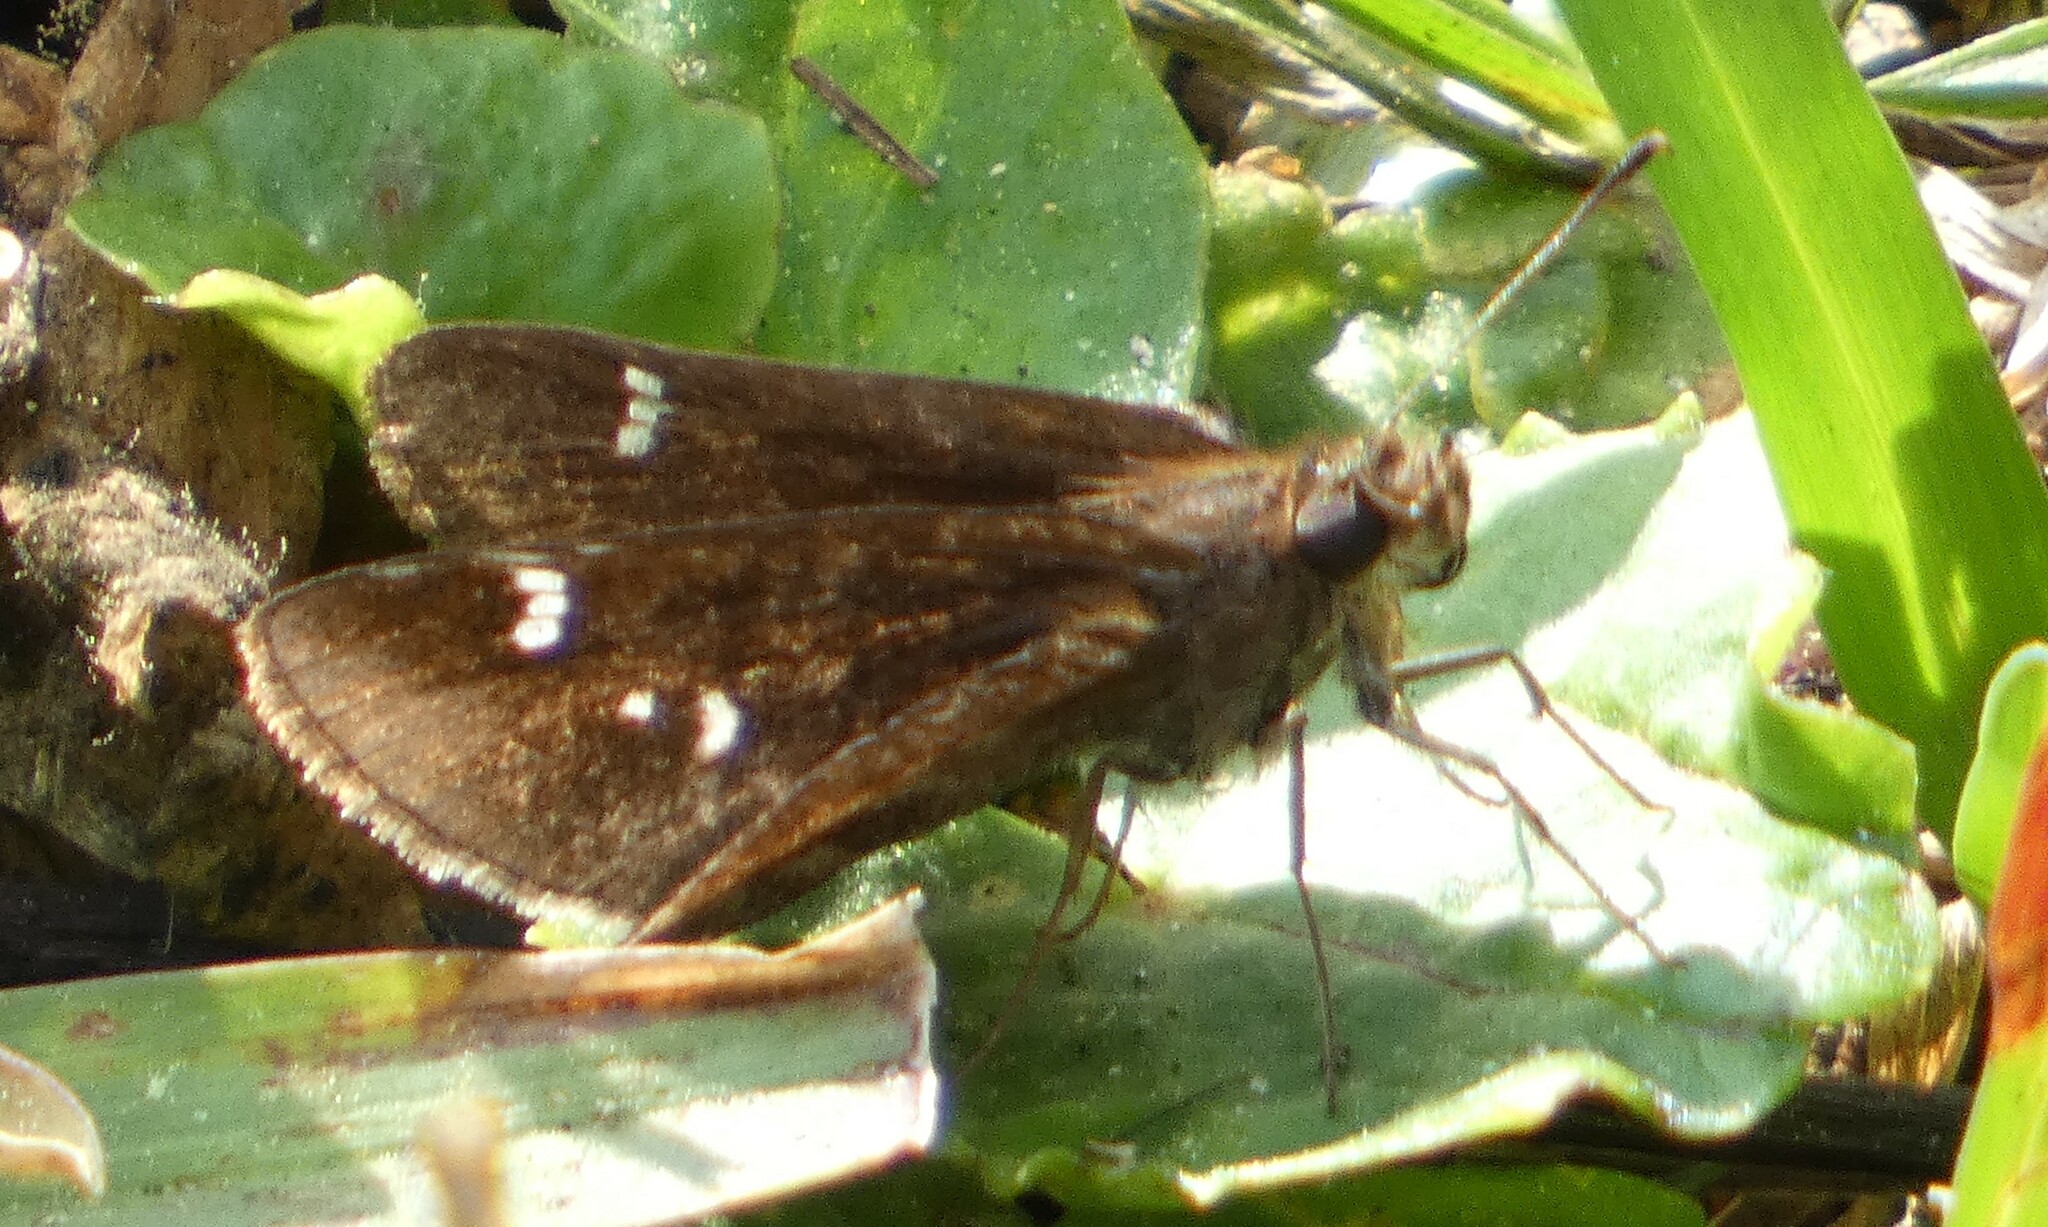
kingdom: Animalia
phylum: Arthropoda
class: Insecta
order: Lepidoptera
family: Hesperiidae
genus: Lerema
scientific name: Lerema accius
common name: Clouded skipper
